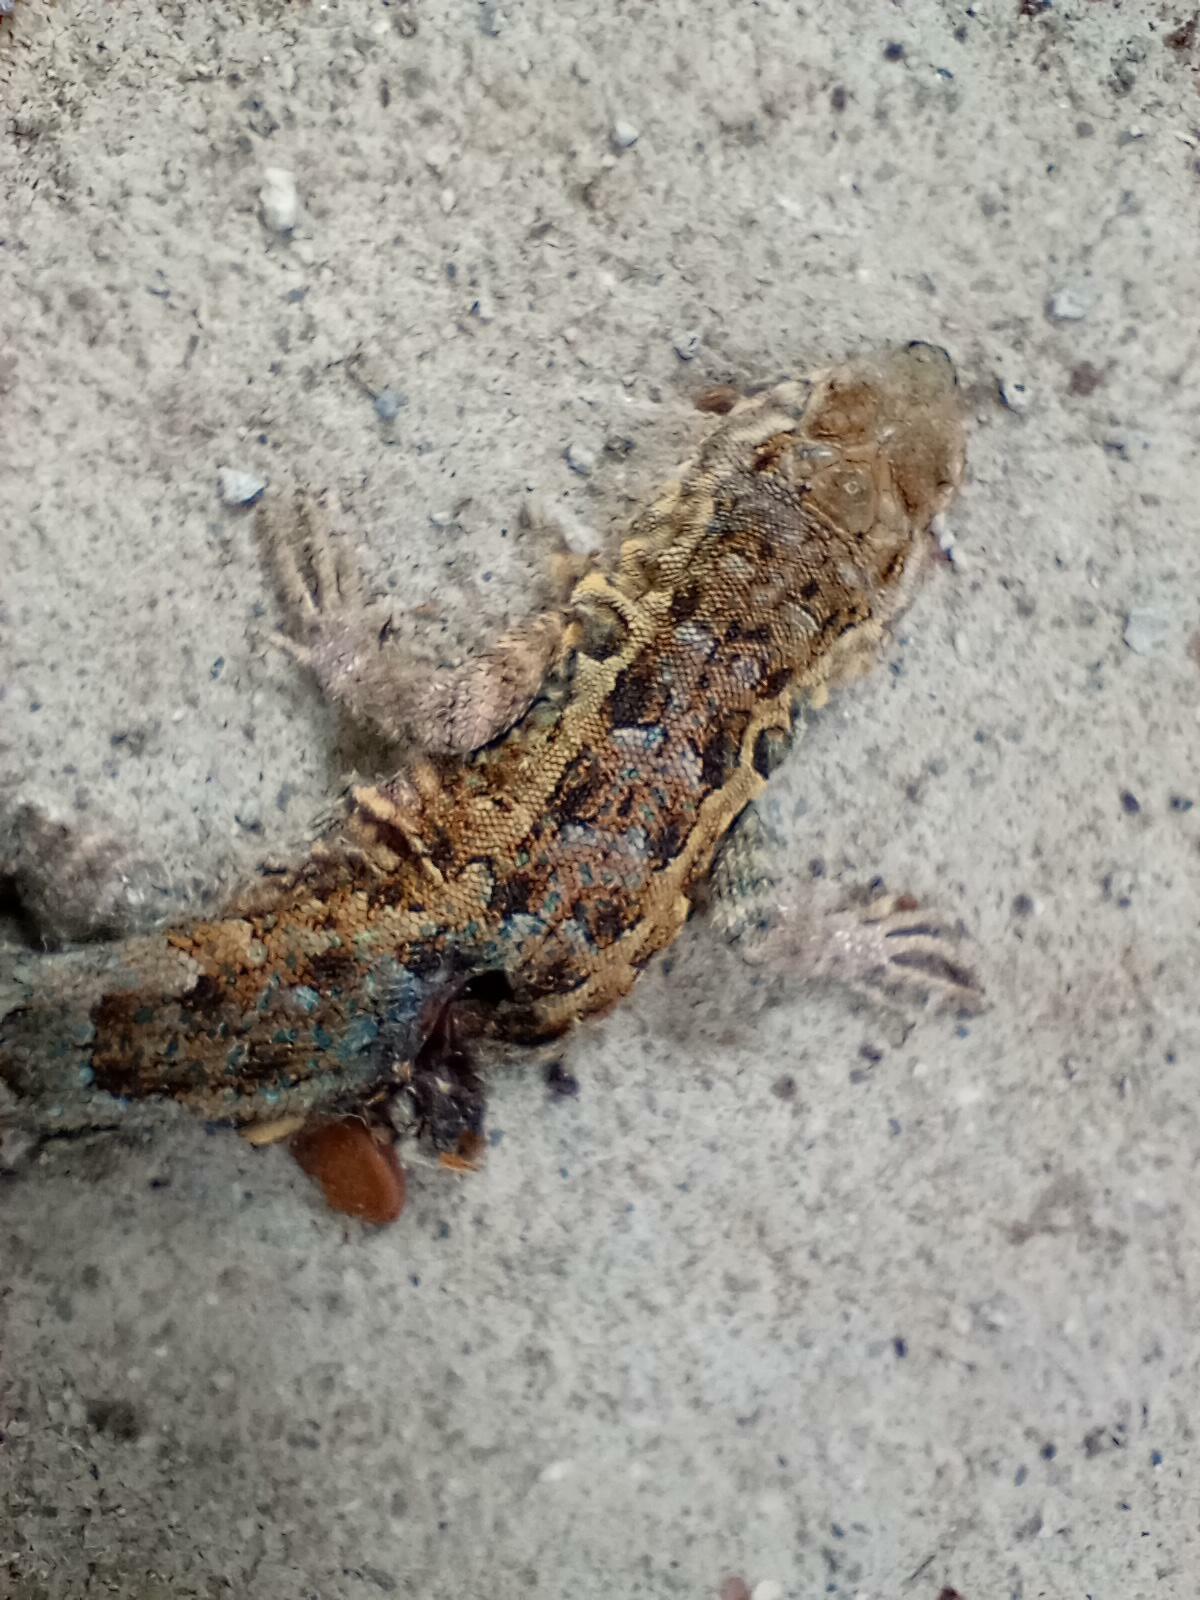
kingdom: Animalia
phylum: Chordata
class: Squamata
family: Phrynosomatidae
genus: Uta
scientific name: Uta stansburiana
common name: Side-blotched lizard
